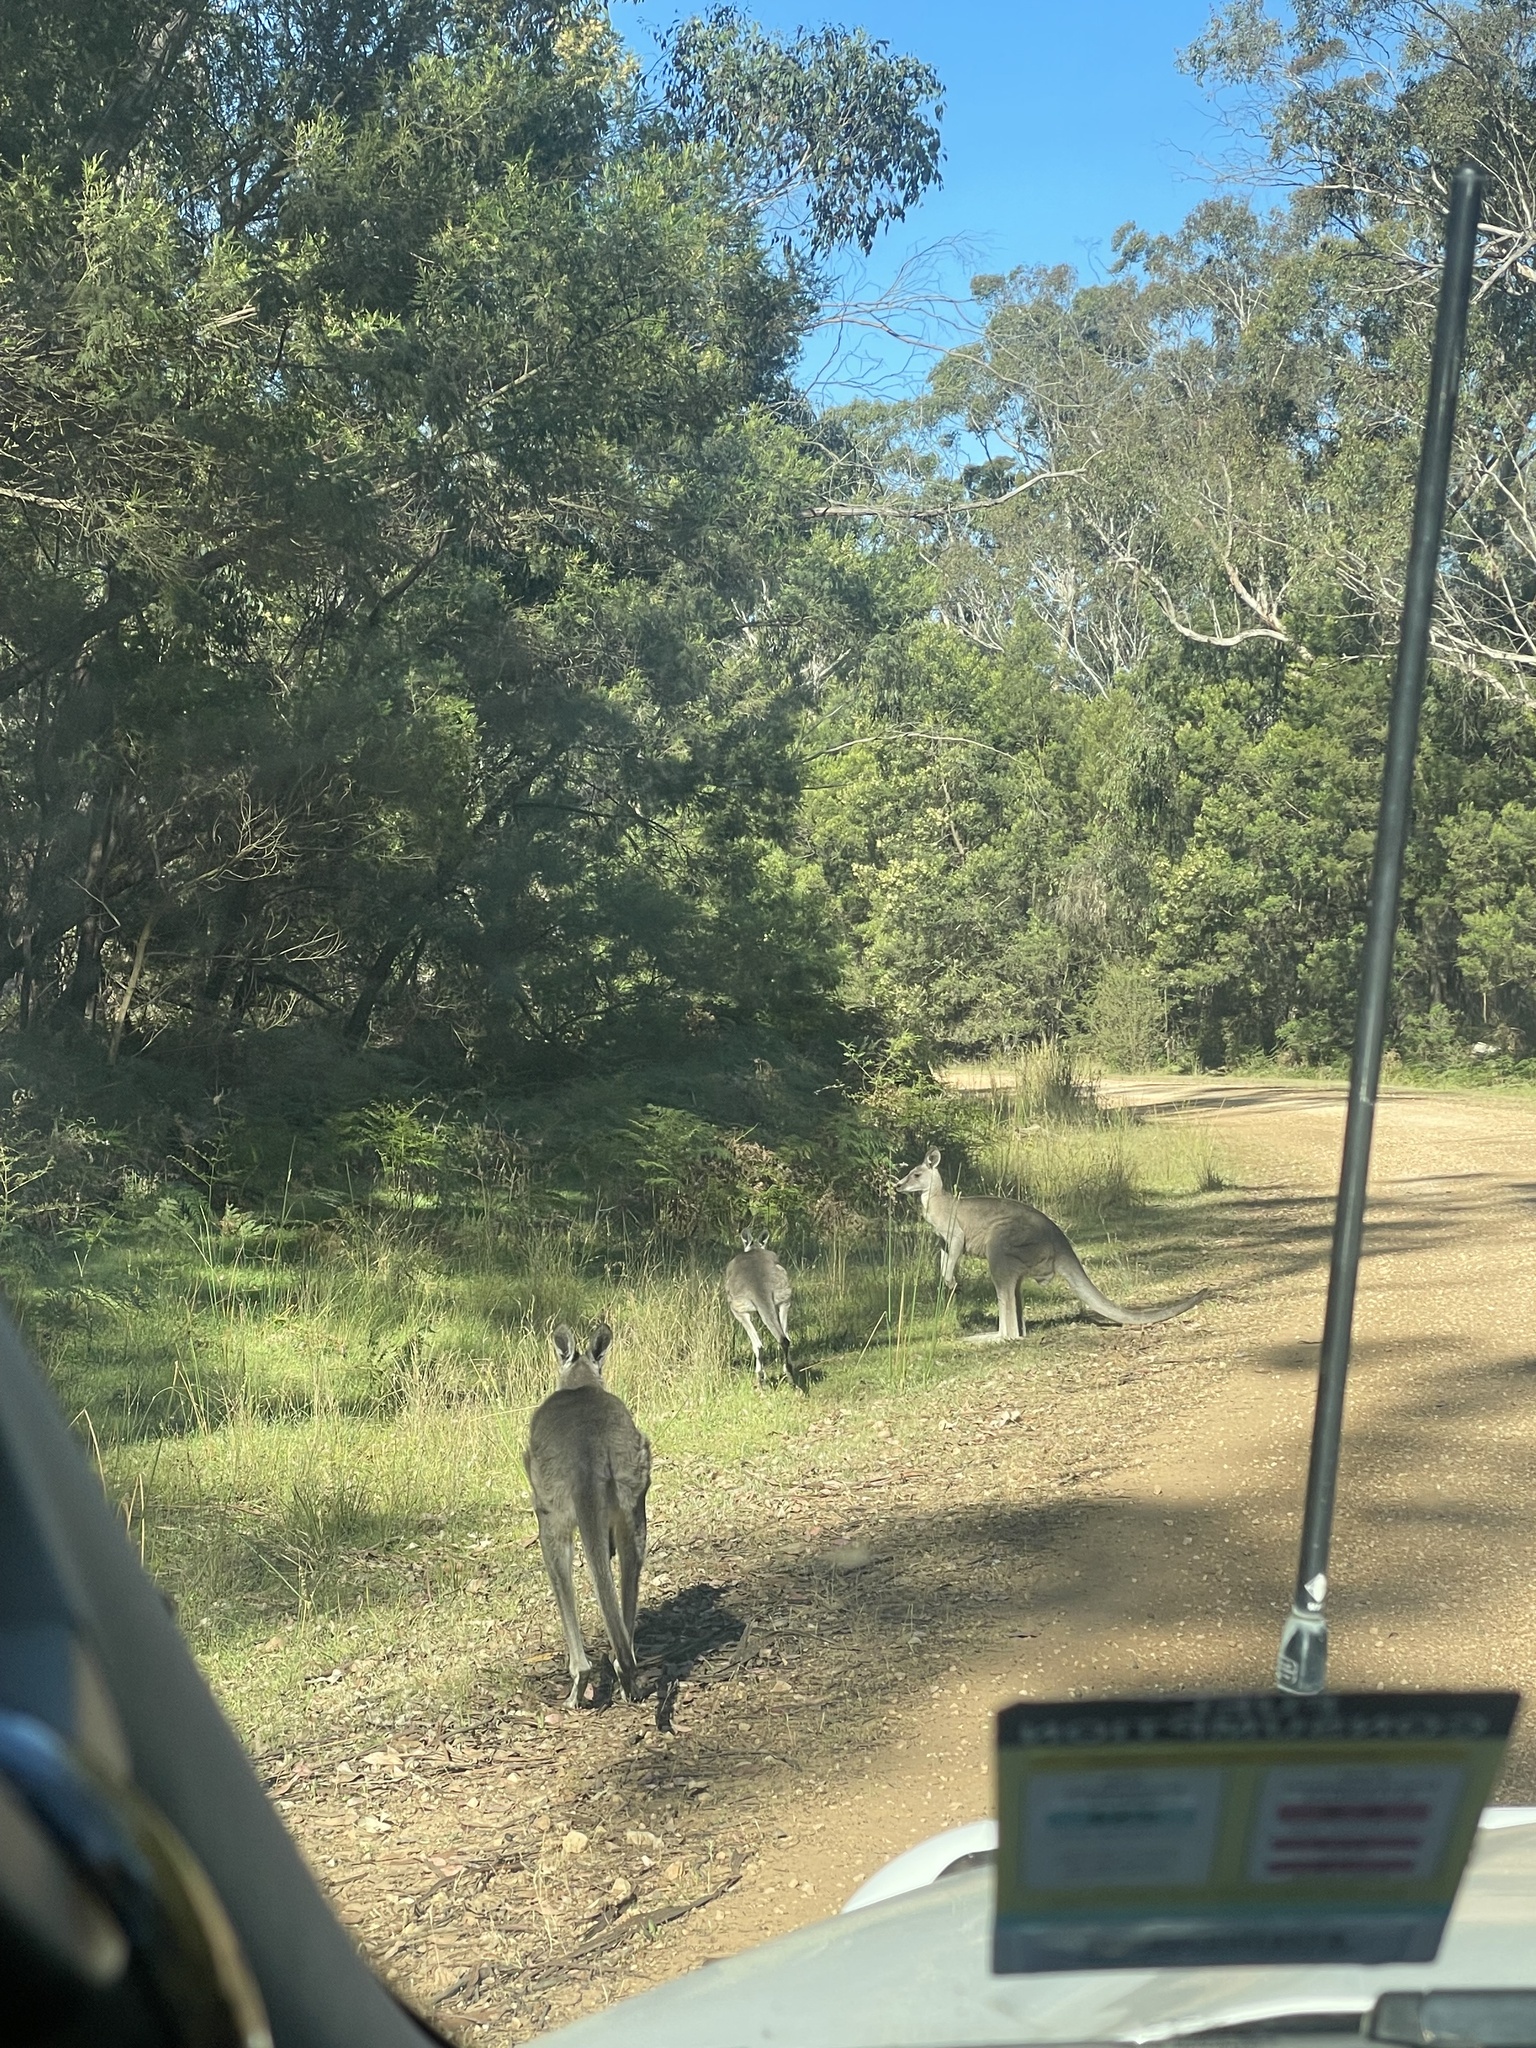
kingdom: Animalia
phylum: Chordata
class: Mammalia
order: Diprotodontia
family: Macropodidae
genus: Macropus
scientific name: Macropus giganteus
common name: Eastern grey kangaroo
